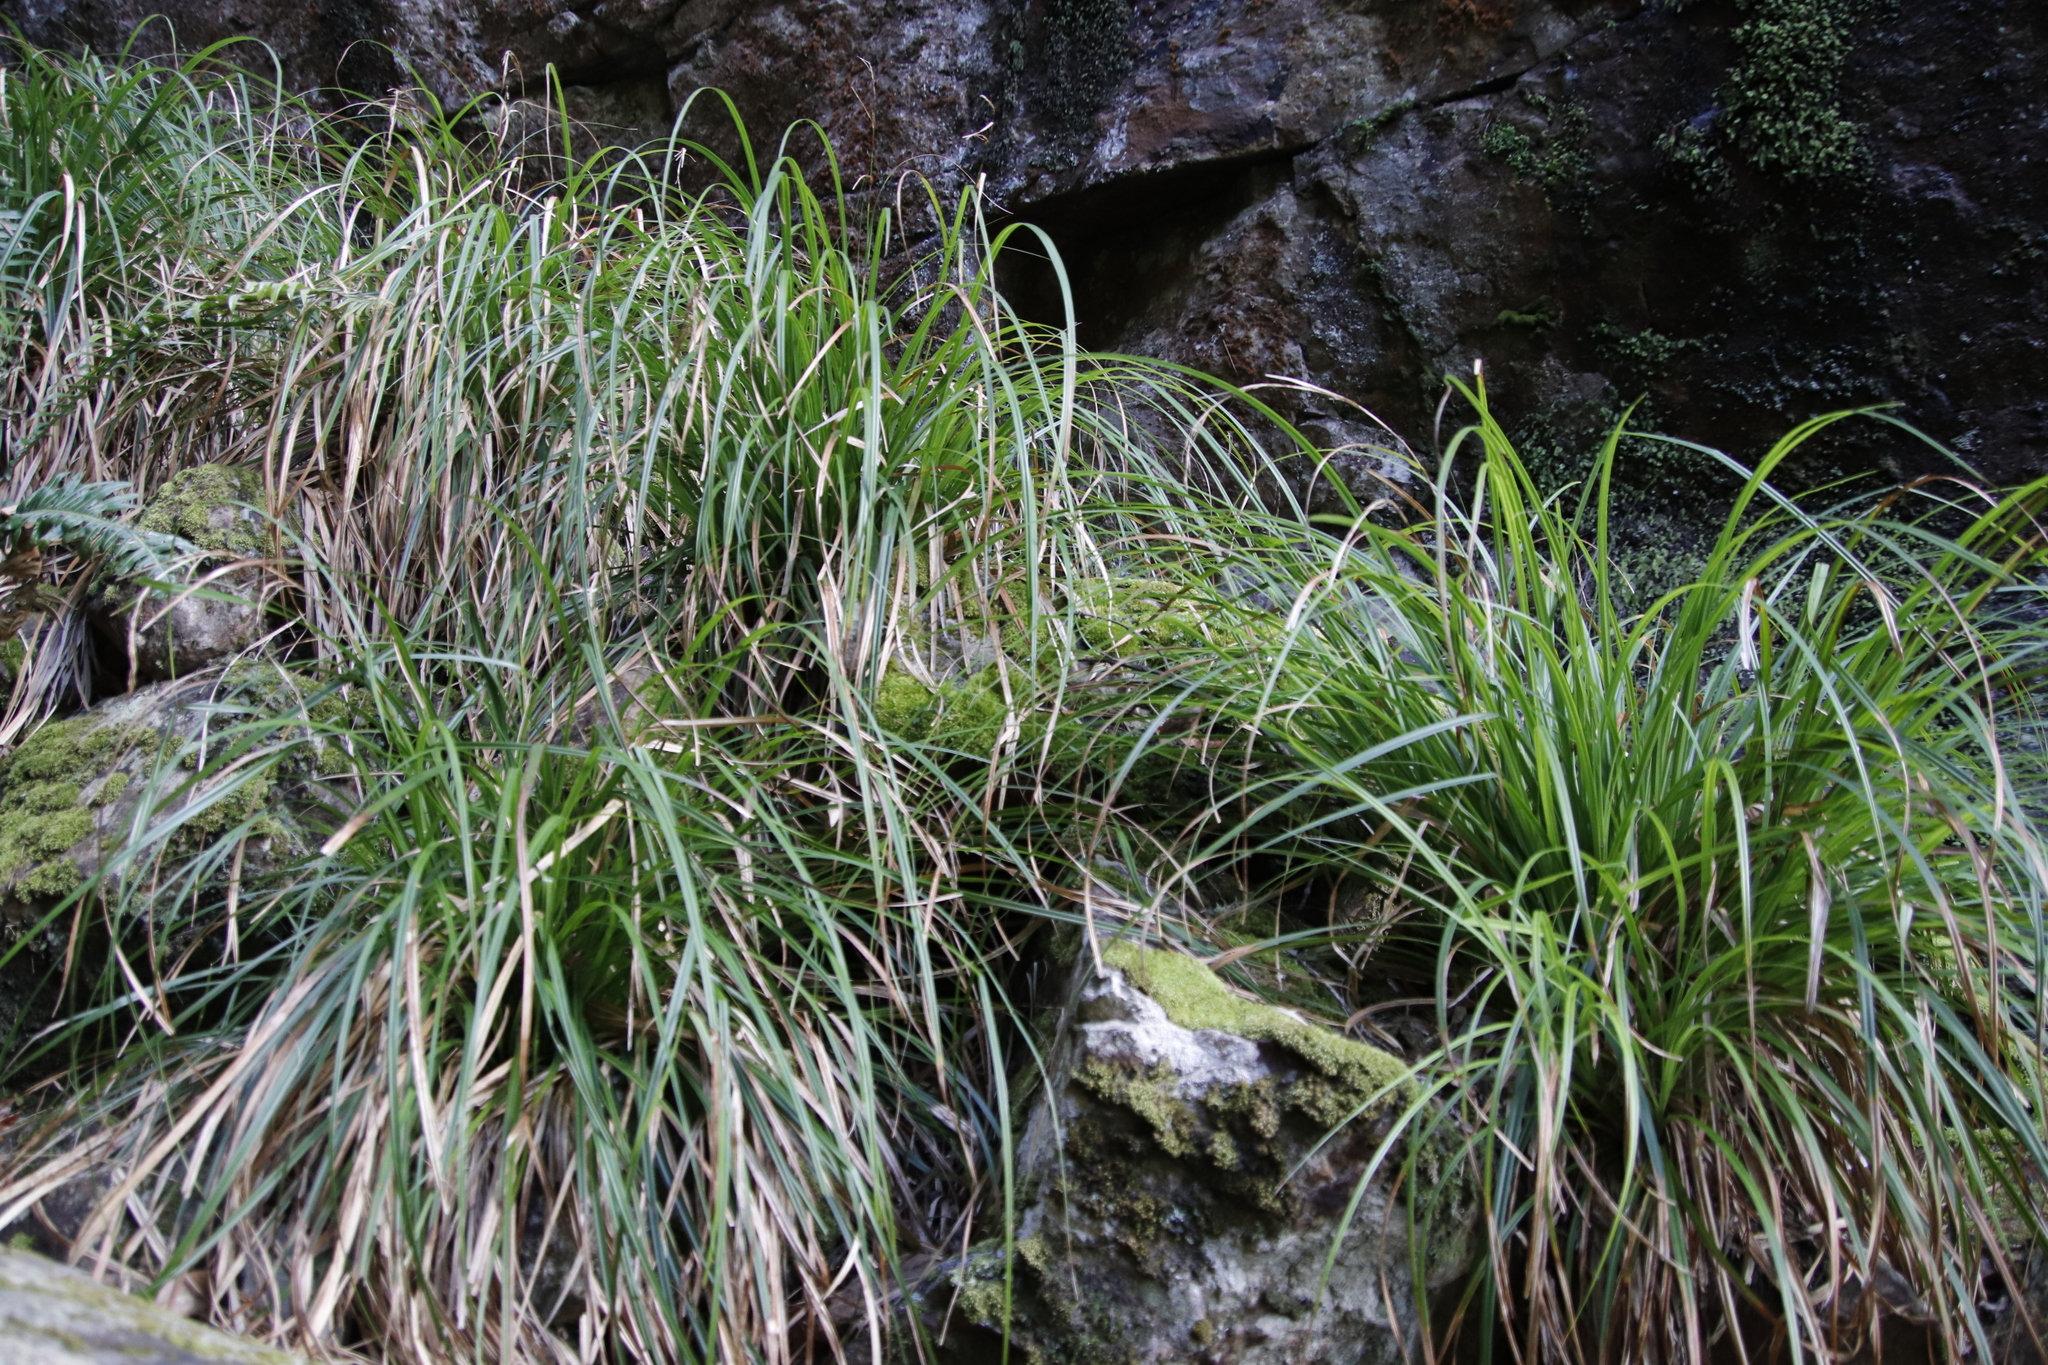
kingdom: Plantae
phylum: Tracheophyta
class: Liliopsida
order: Poales
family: Cyperaceae
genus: Carex
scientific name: Carex lancea
